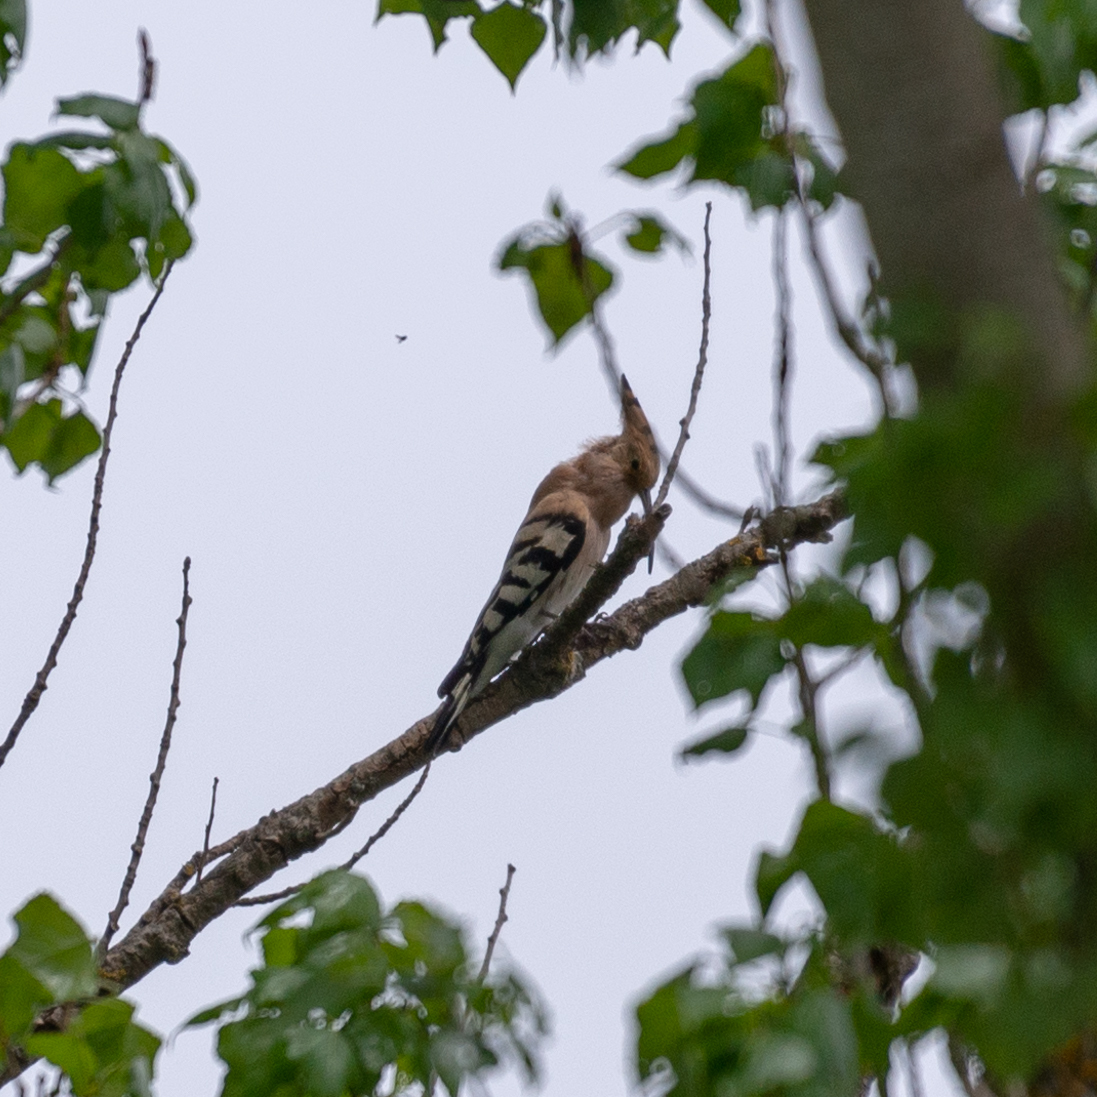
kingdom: Animalia
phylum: Chordata
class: Aves
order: Bucerotiformes
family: Upupidae
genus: Upupa
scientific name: Upupa epops
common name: Eurasian hoopoe
